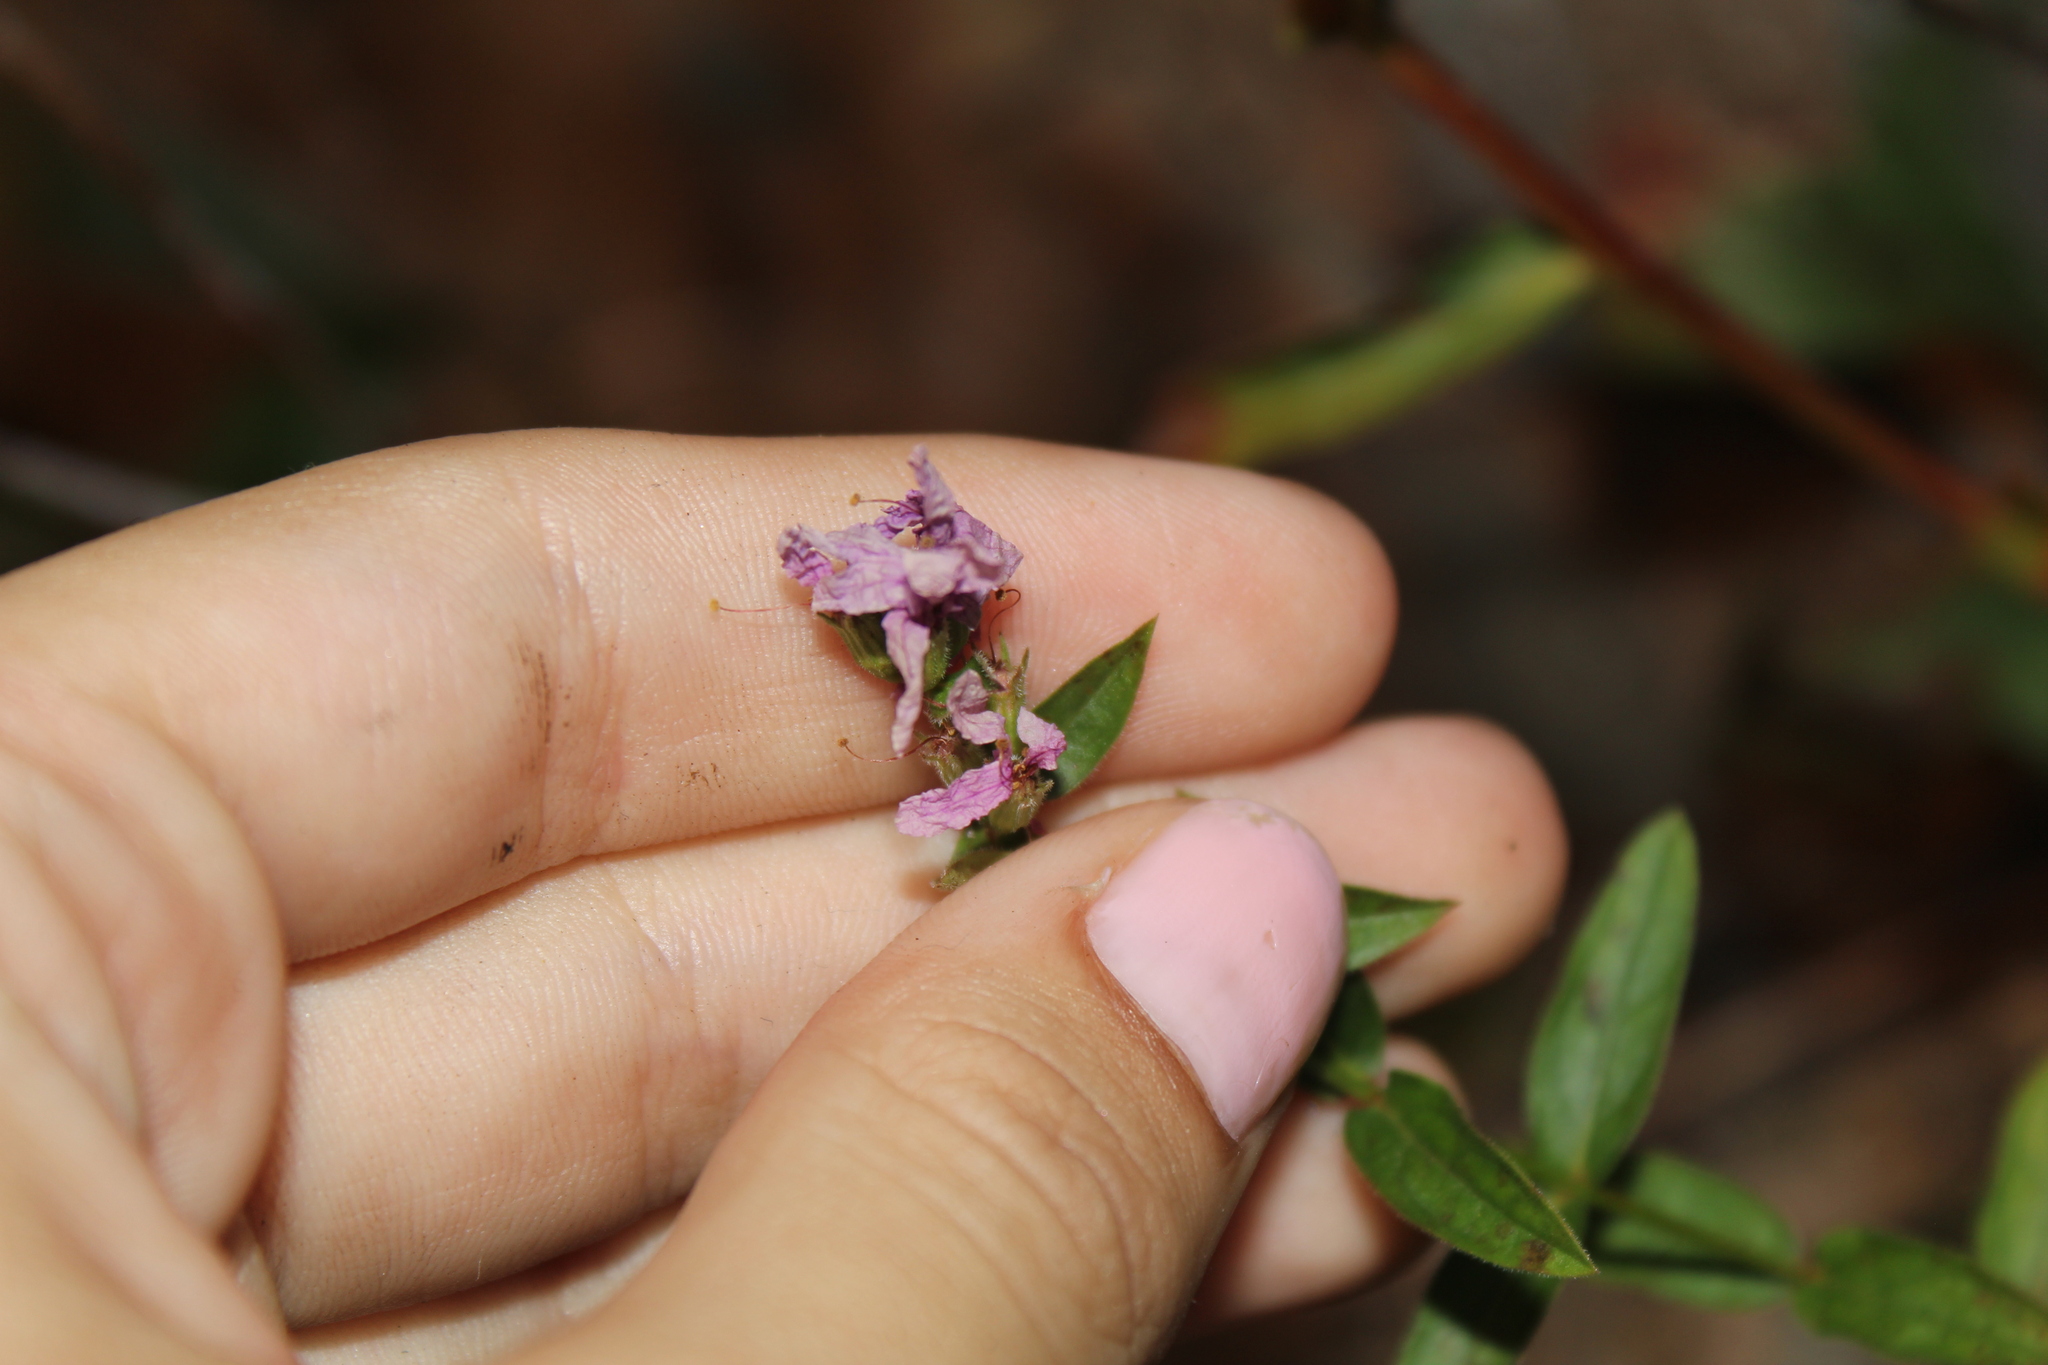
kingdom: Plantae
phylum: Tracheophyta
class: Magnoliopsida
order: Myrtales
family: Lythraceae
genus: Lythrum
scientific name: Lythrum salicaria
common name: Purple loosestrife
